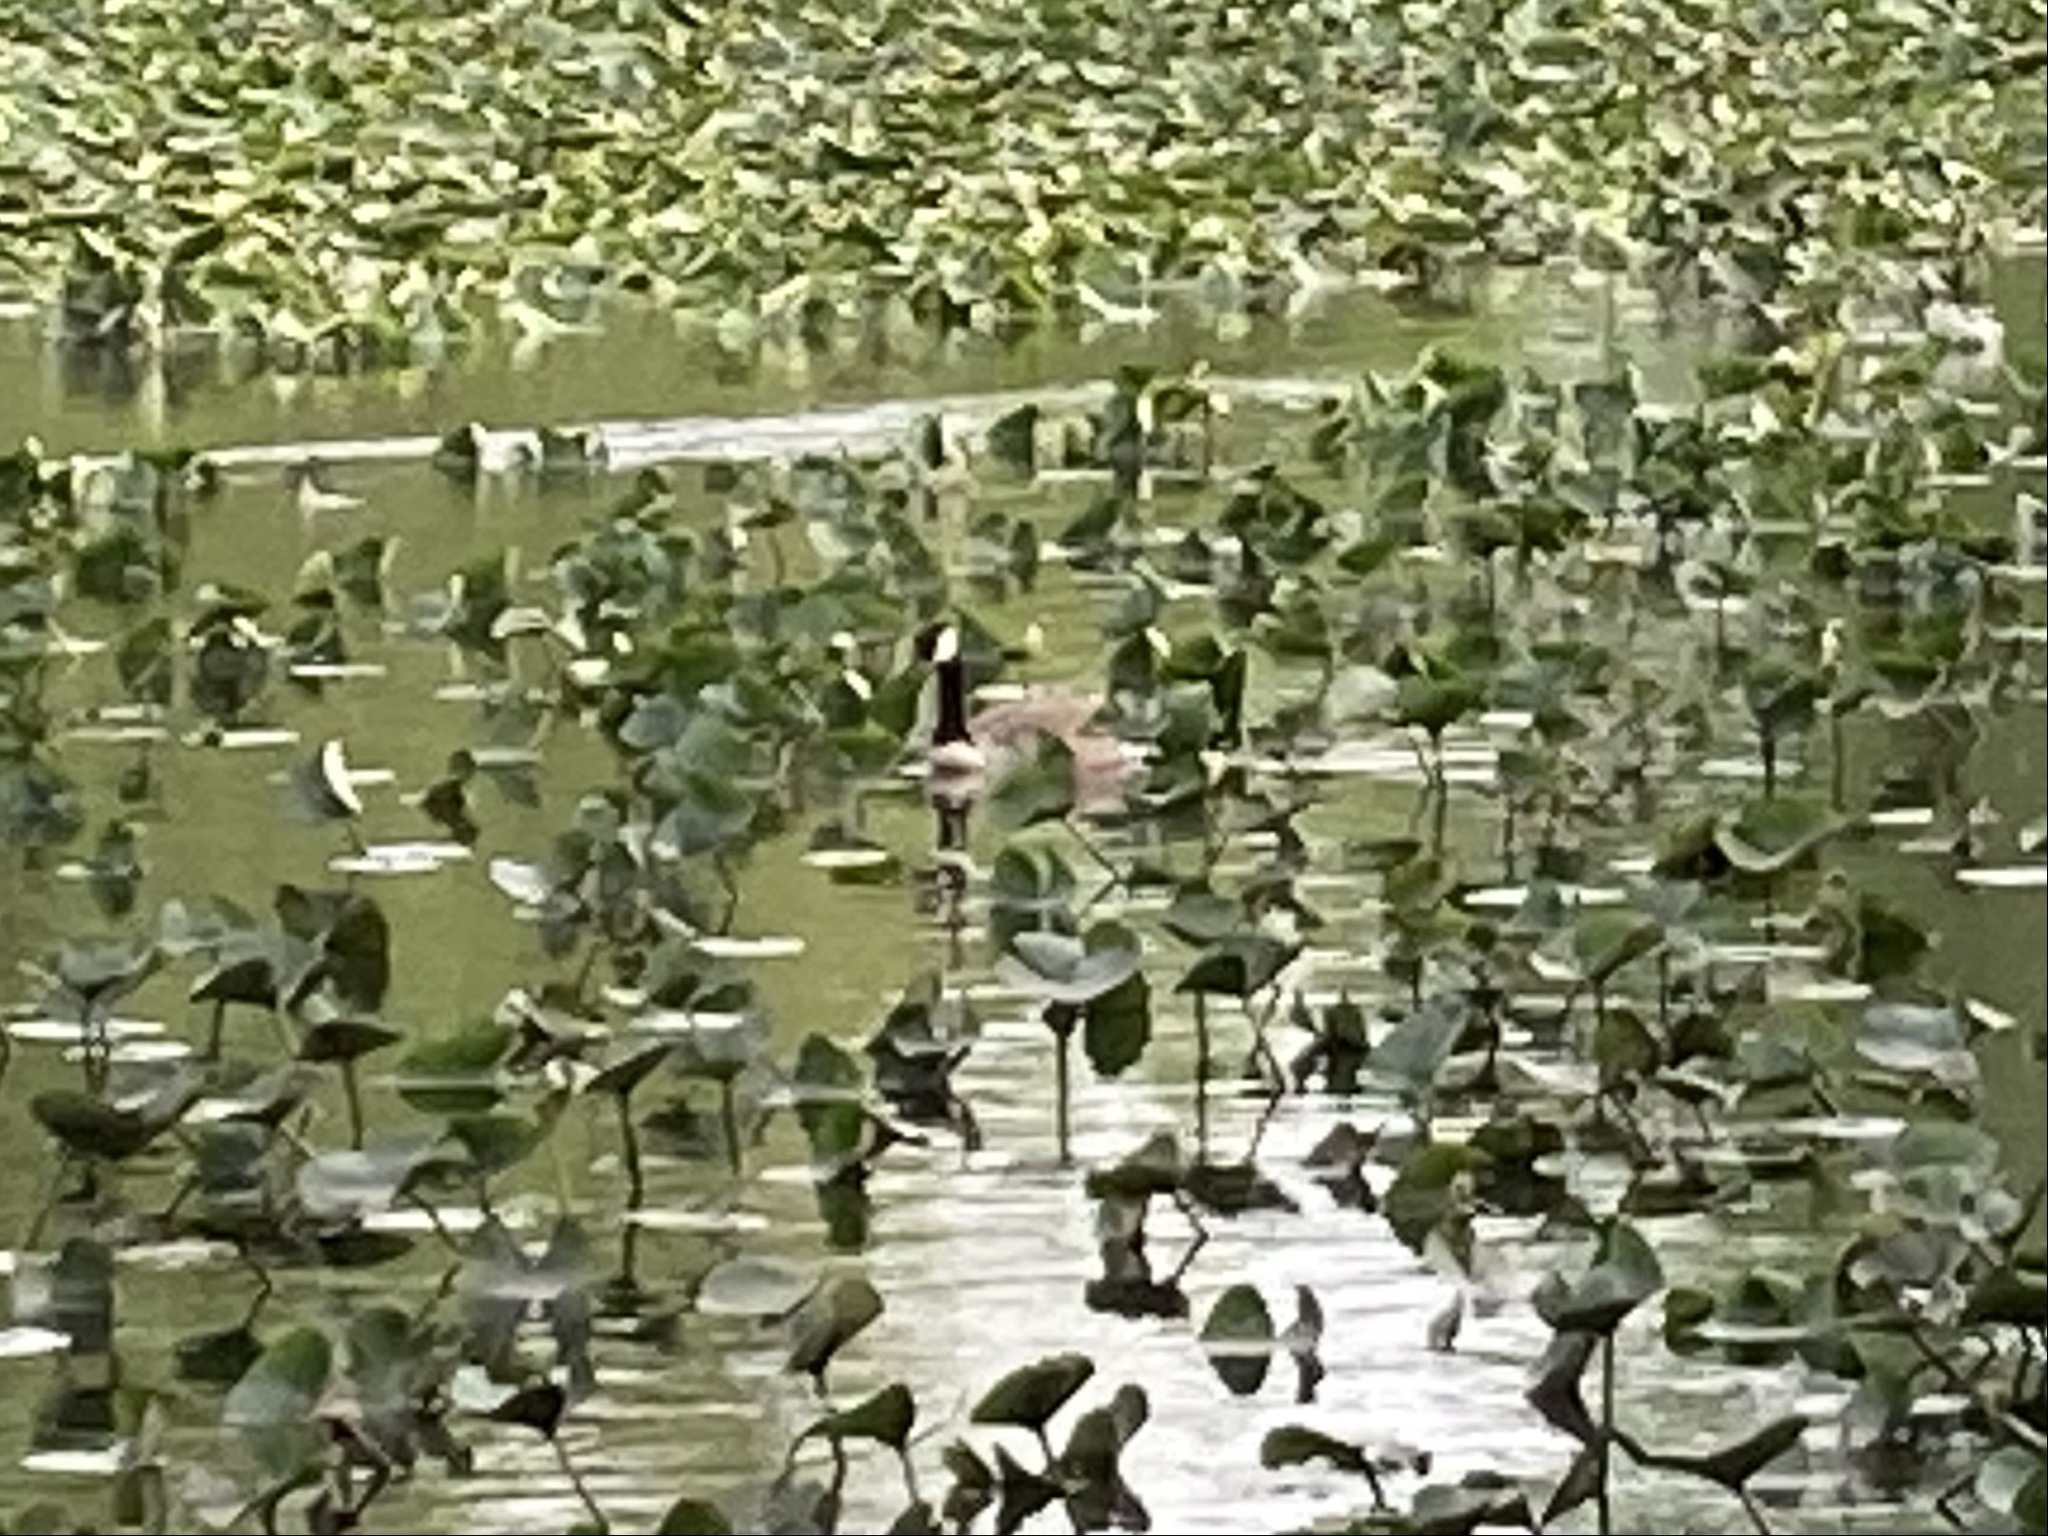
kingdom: Animalia
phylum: Chordata
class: Aves
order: Anseriformes
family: Anatidae
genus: Branta
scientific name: Branta canadensis
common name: Canada goose
